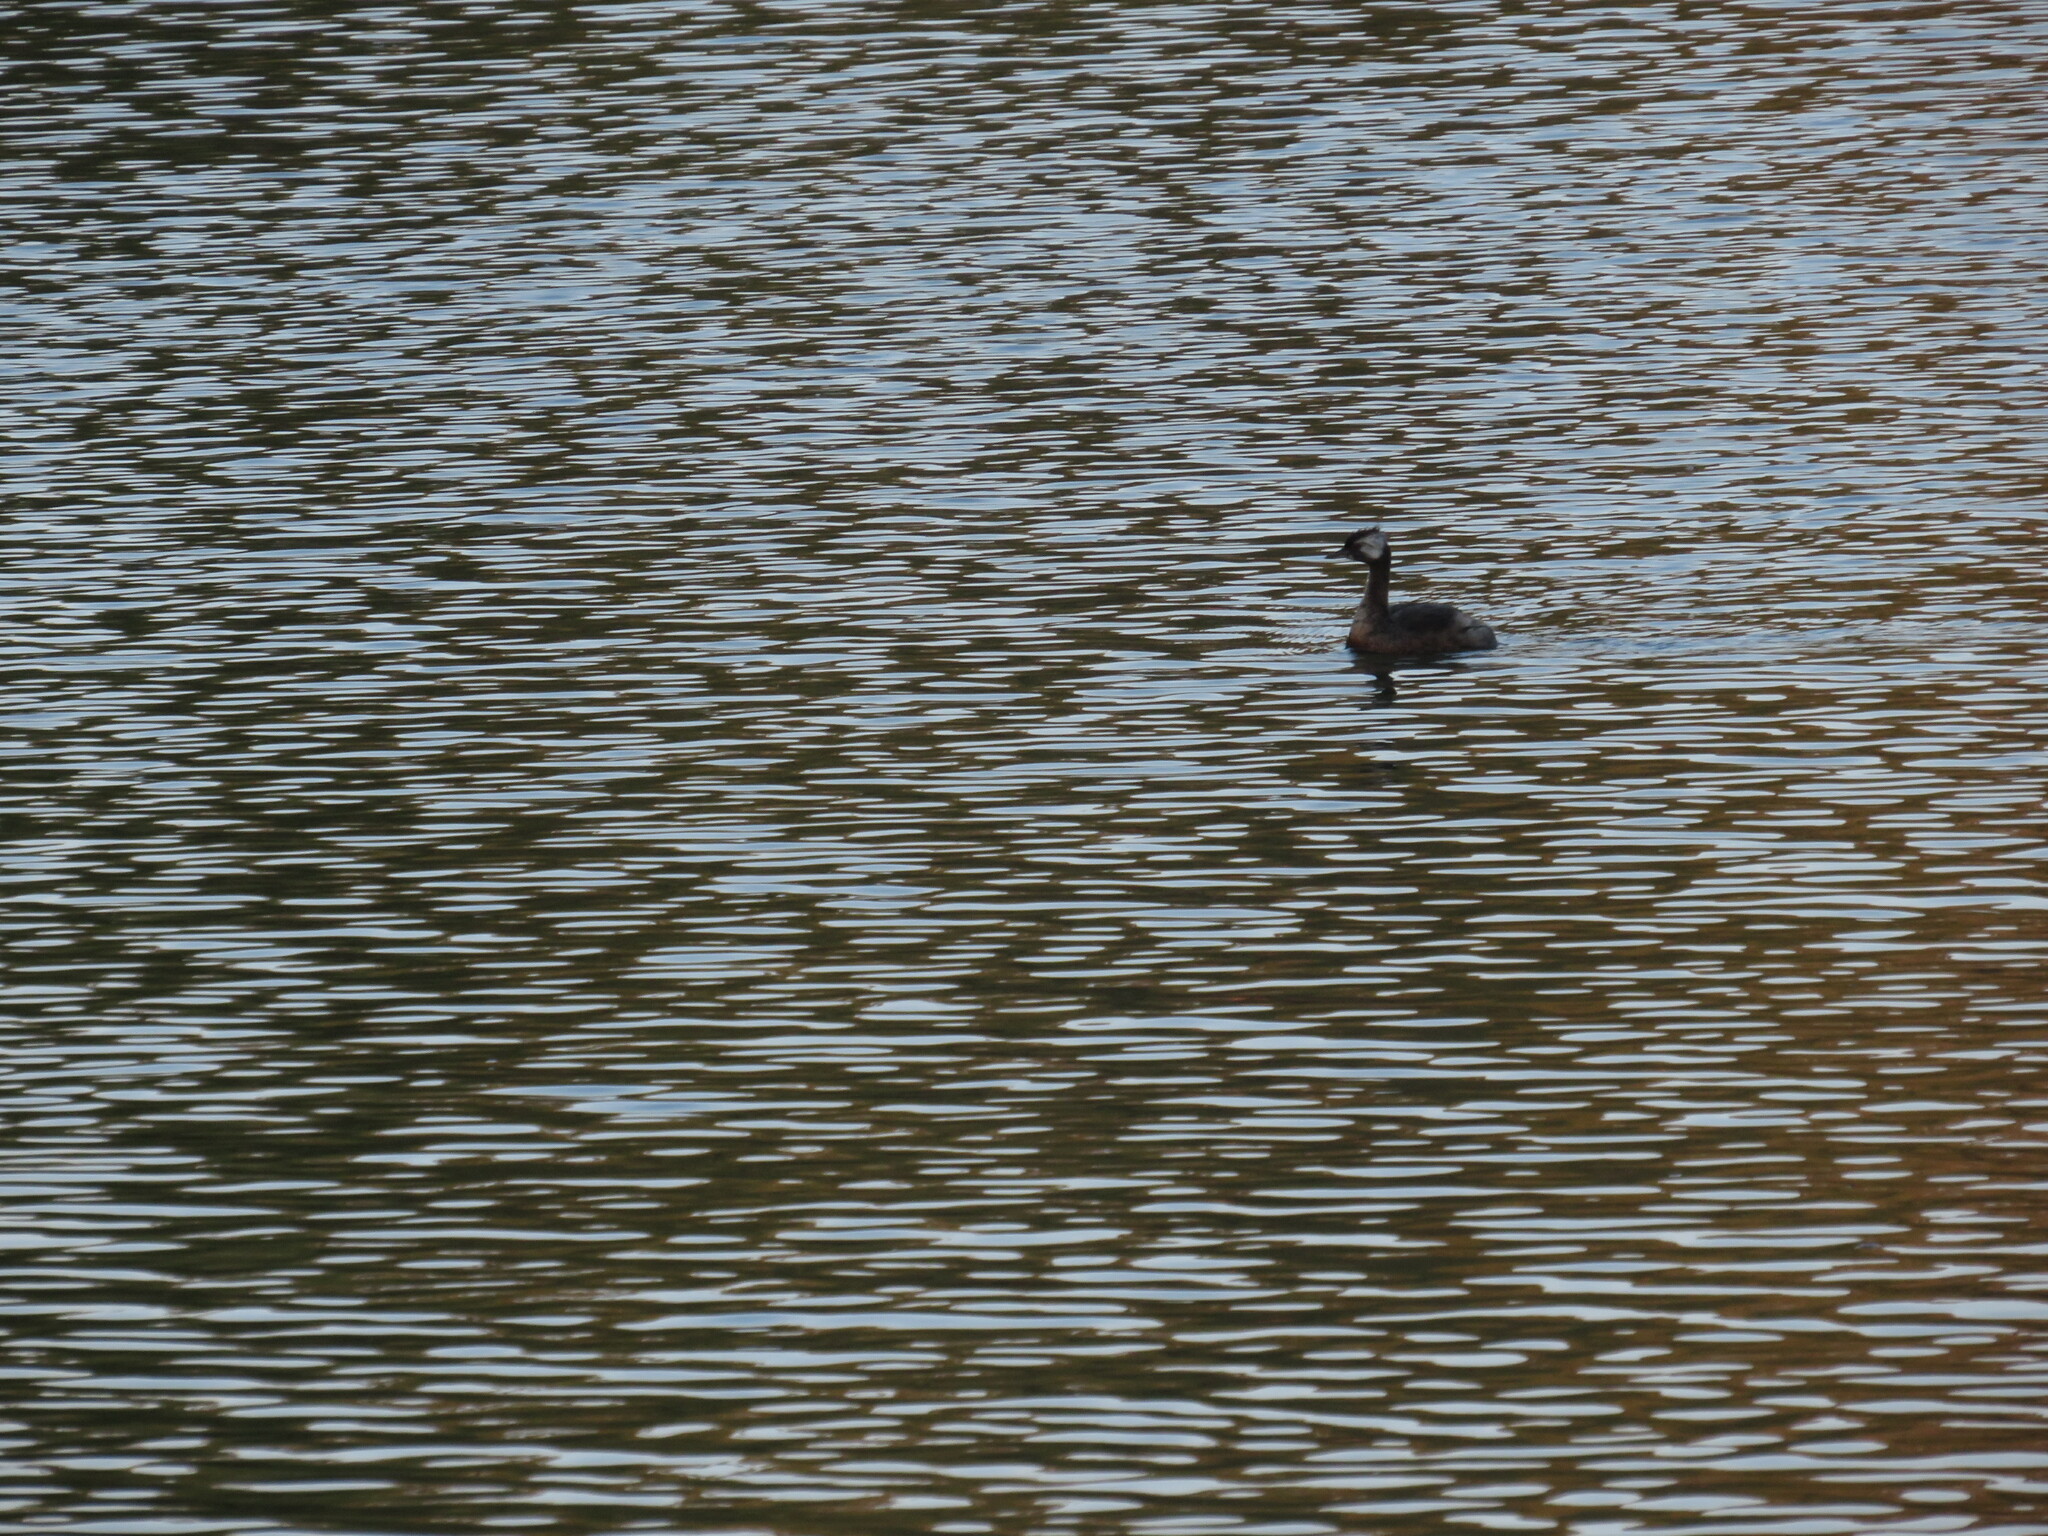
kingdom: Animalia
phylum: Chordata
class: Aves
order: Podicipediformes
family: Podicipedidae
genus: Rollandia
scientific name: Rollandia rolland
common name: White-tufted grebe
